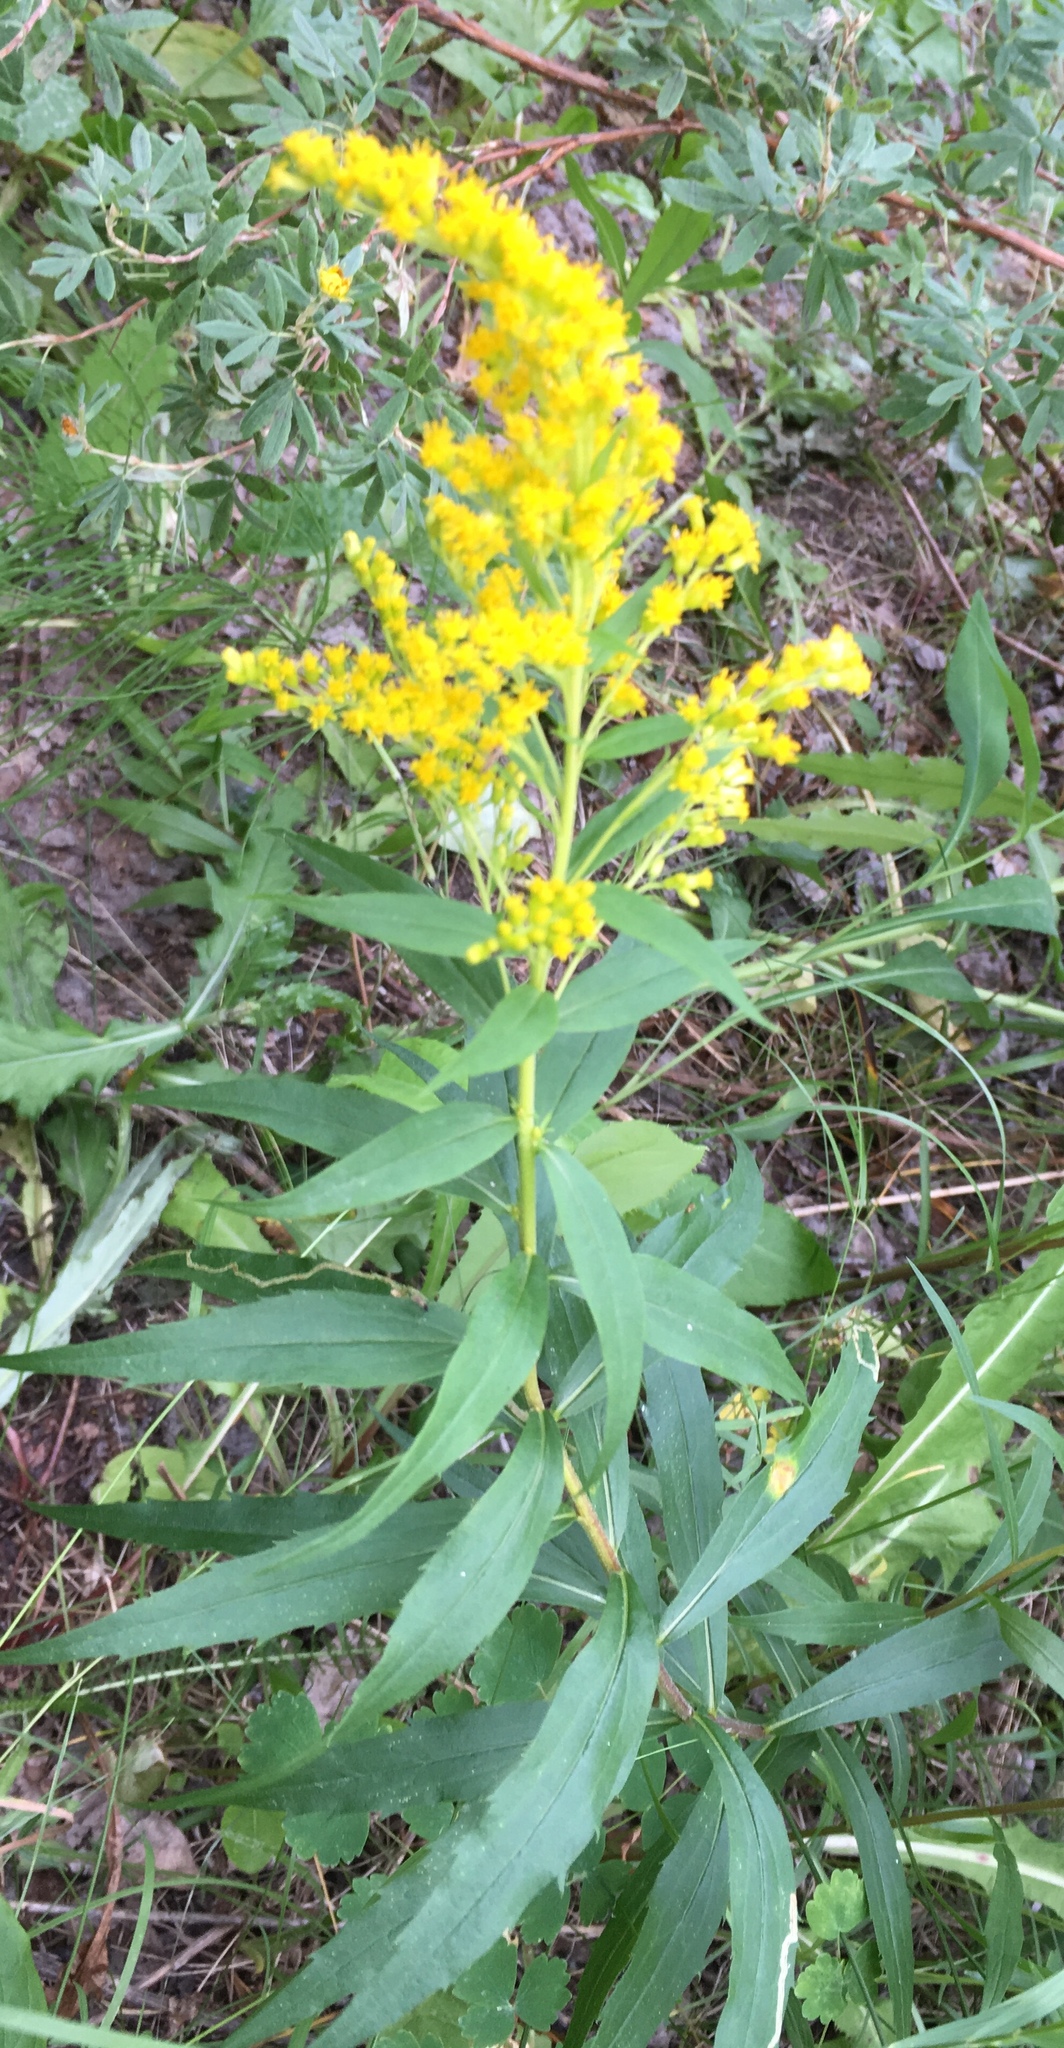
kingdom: Plantae
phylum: Tracheophyta
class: Magnoliopsida
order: Asterales
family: Asteraceae
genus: Solidago
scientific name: Solidago canadensis
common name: Canada goldenrod
